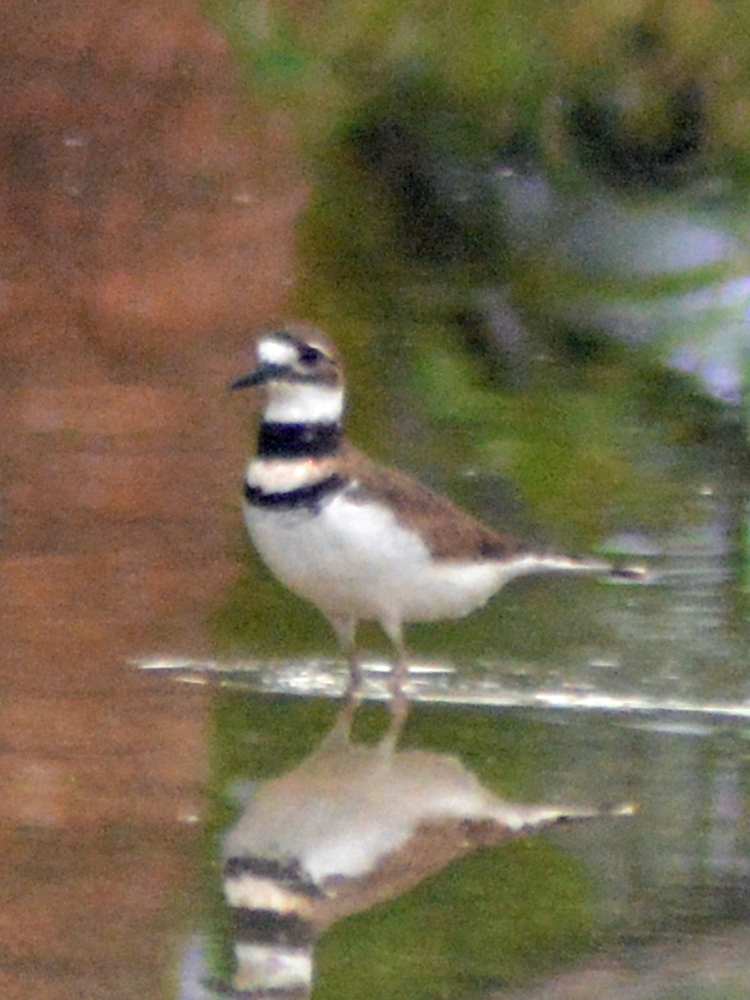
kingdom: Animalia
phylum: Chordata
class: Aves
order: Charadriiformes
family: Charadriidae
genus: Charadrius
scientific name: Charadrius vociferus
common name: Killdeer
